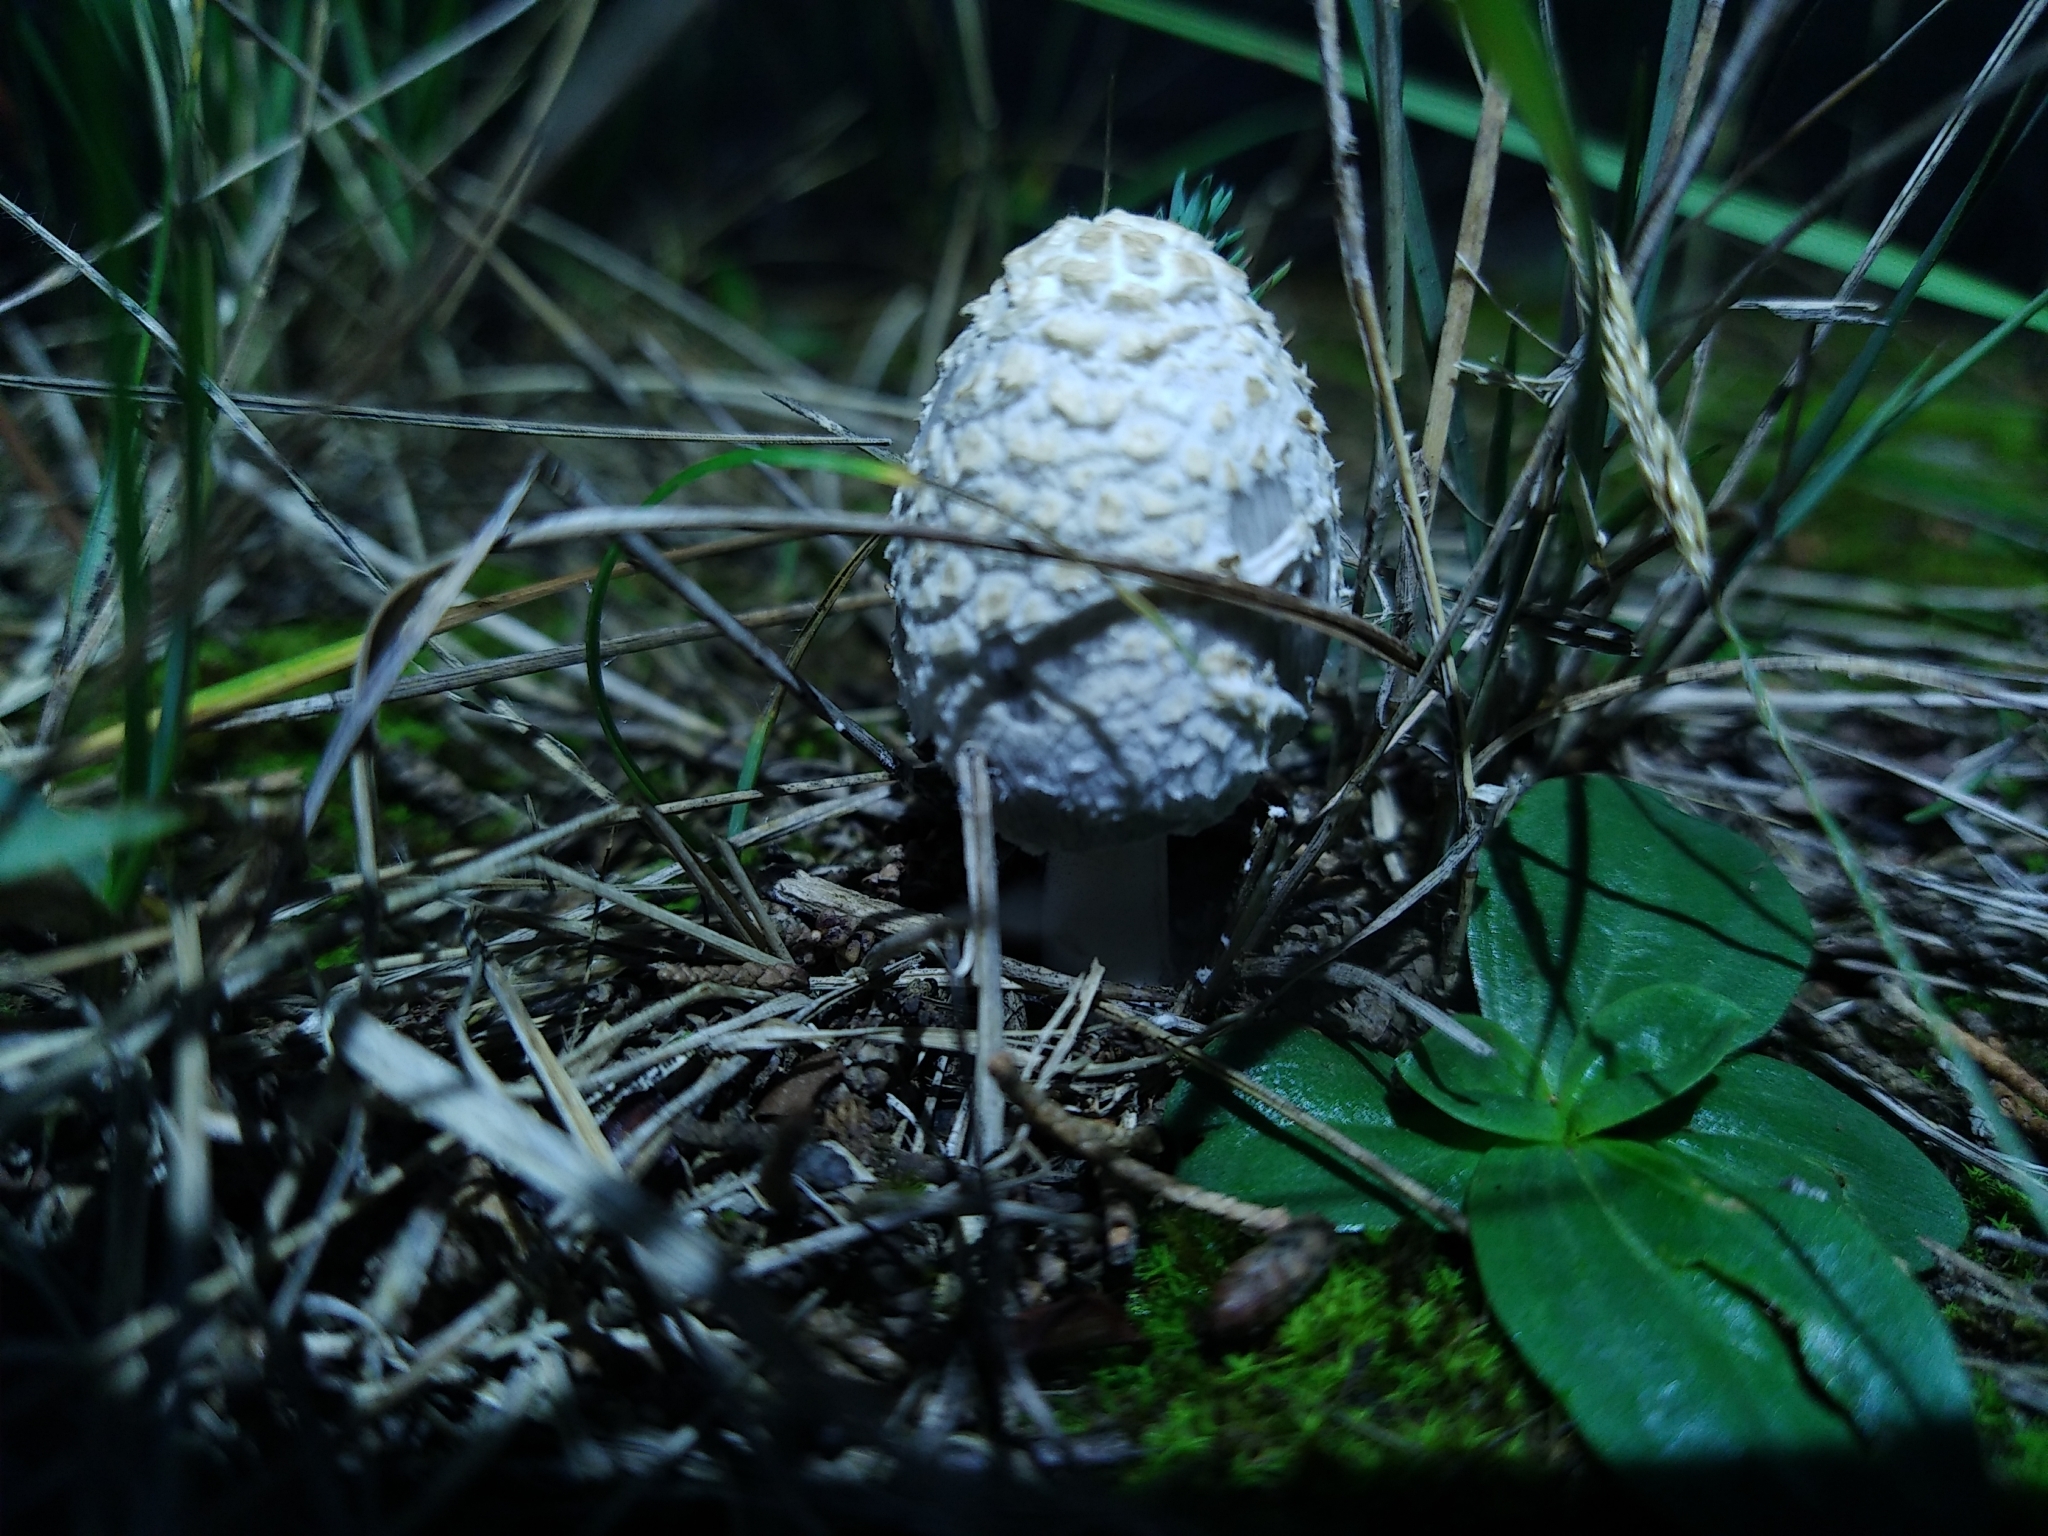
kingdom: Fungi
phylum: Basidiomycota
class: Agaricomycetes
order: Agaricales
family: Agaricaceae
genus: Coprinus
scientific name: Coprinus comatus
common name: Lawyer's wig
